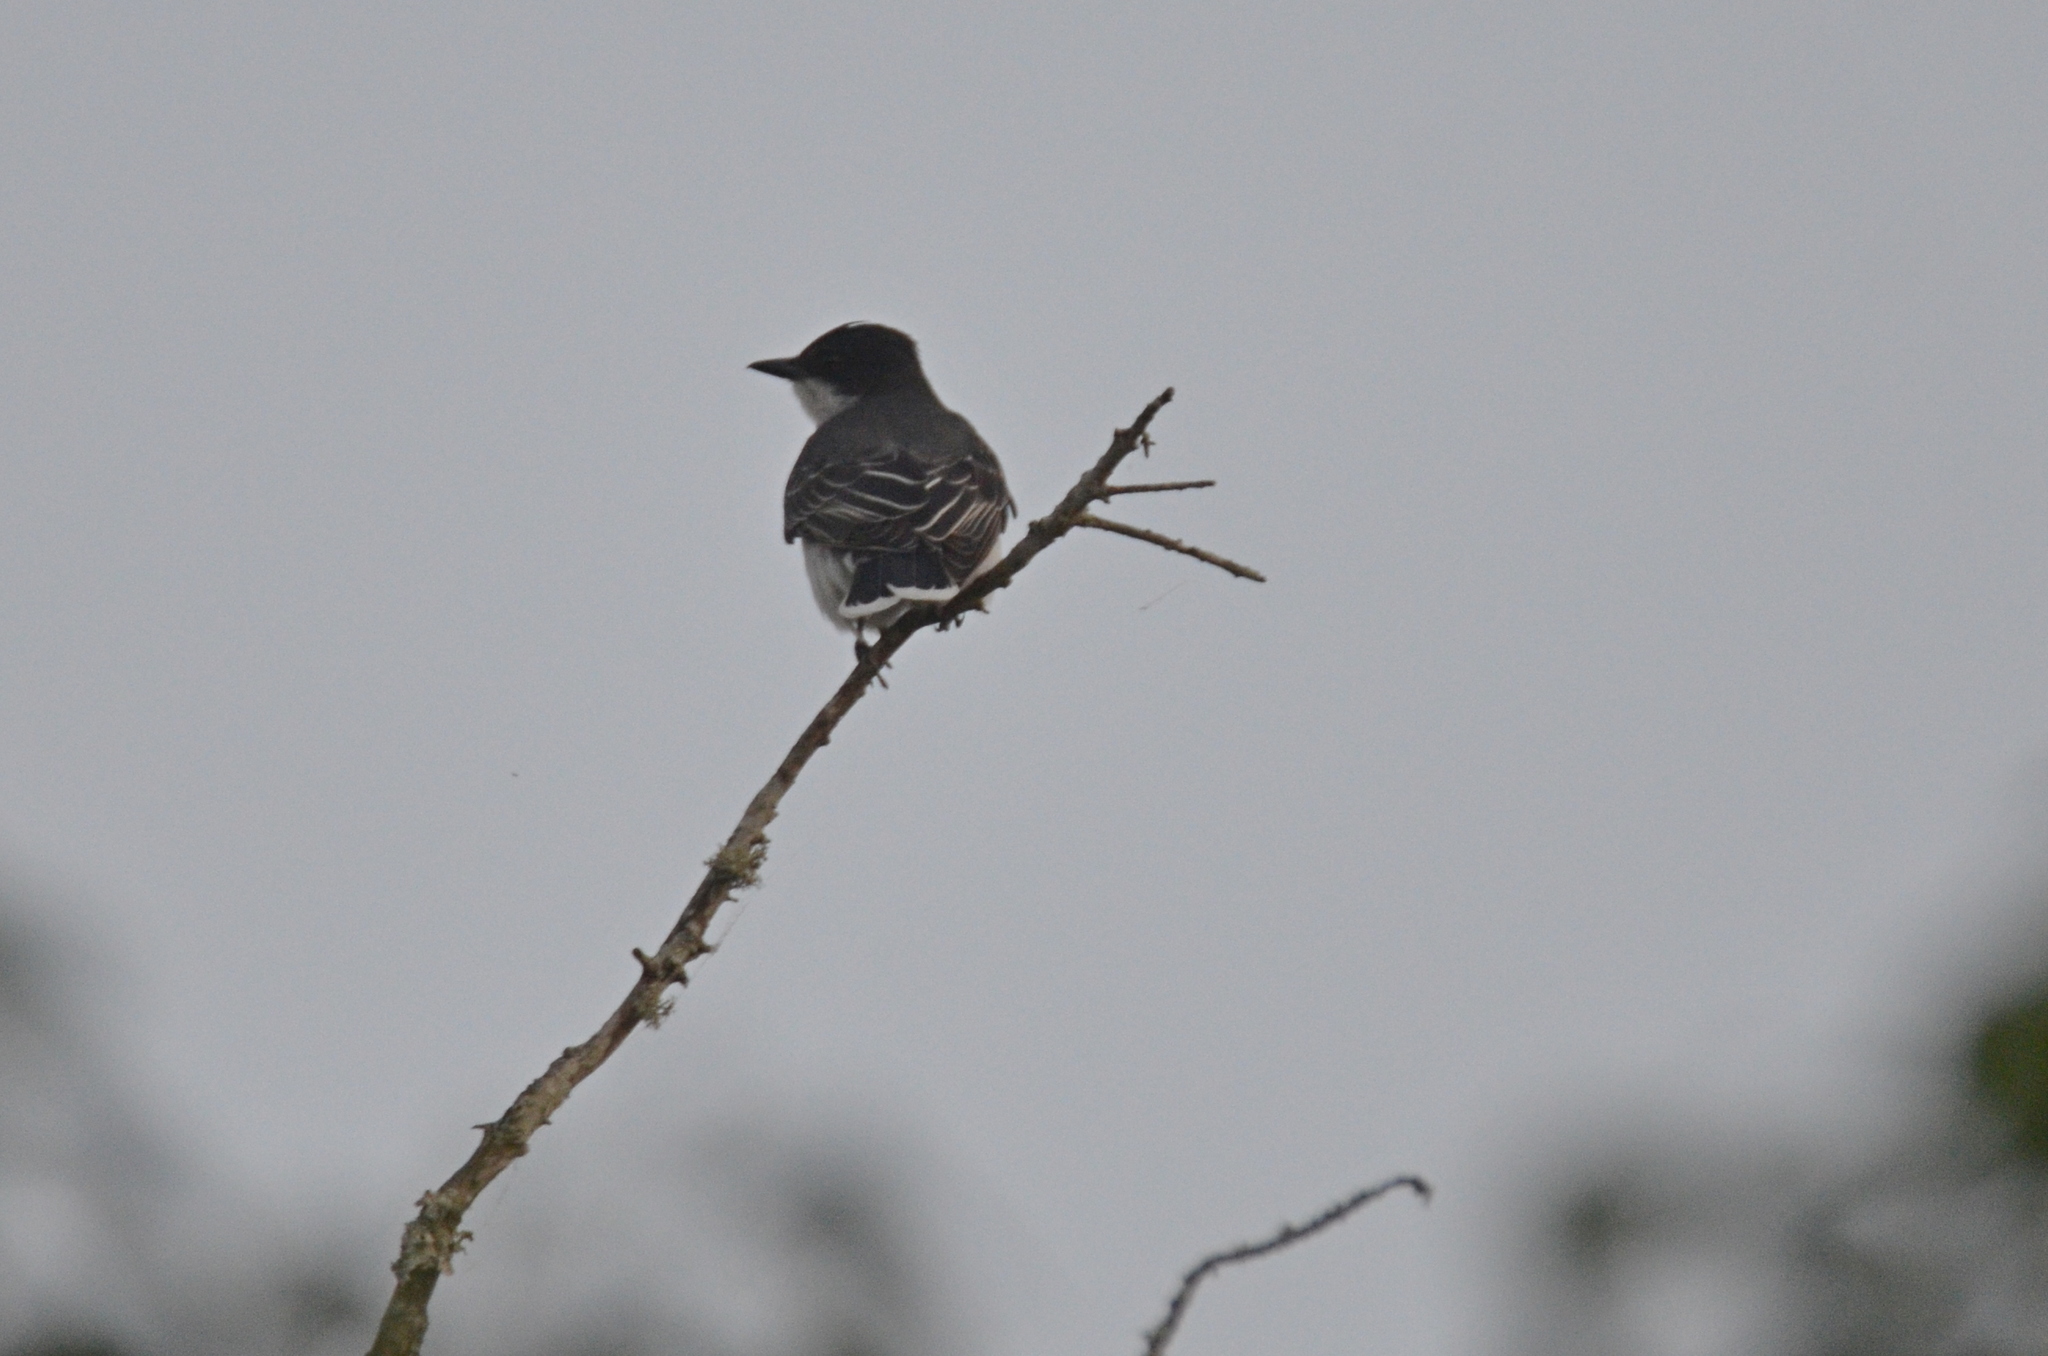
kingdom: Animalia
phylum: Chordata
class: Aves
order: Passeriformes
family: Tyrannidae
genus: Tyrannus
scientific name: Tyrannus tyrannus
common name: Eastern kingbird
